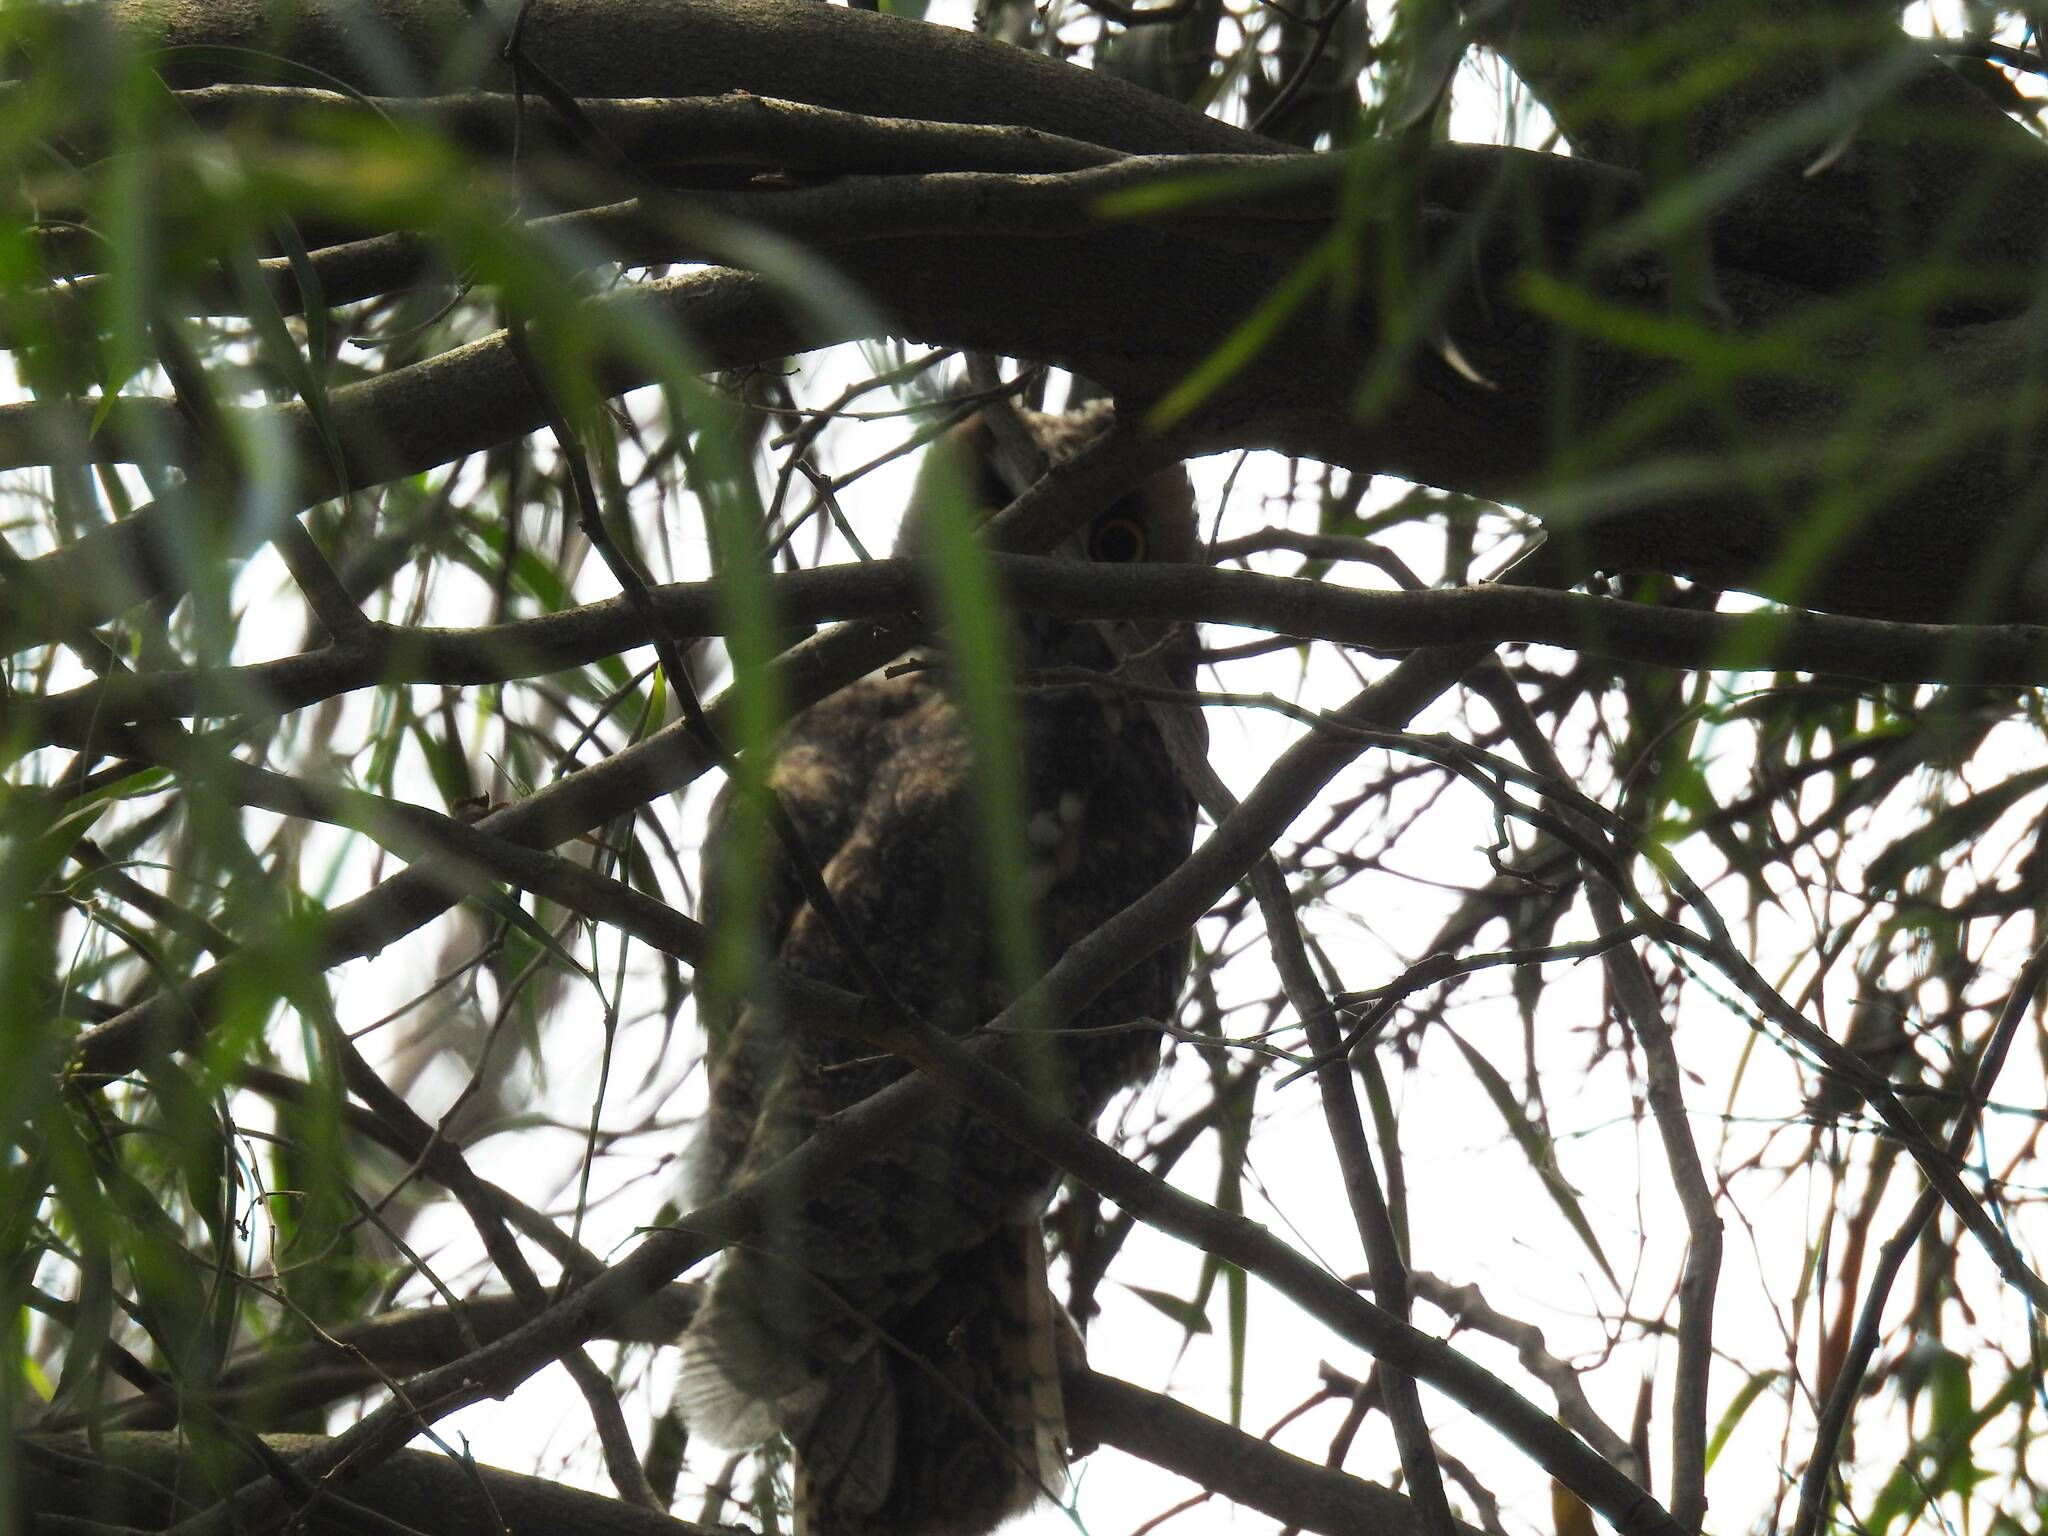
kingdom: Animalia
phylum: Chordata
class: Aves
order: Strigiformes
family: Strigidae
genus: Asio
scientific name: Asio otus
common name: Long-eared owl
